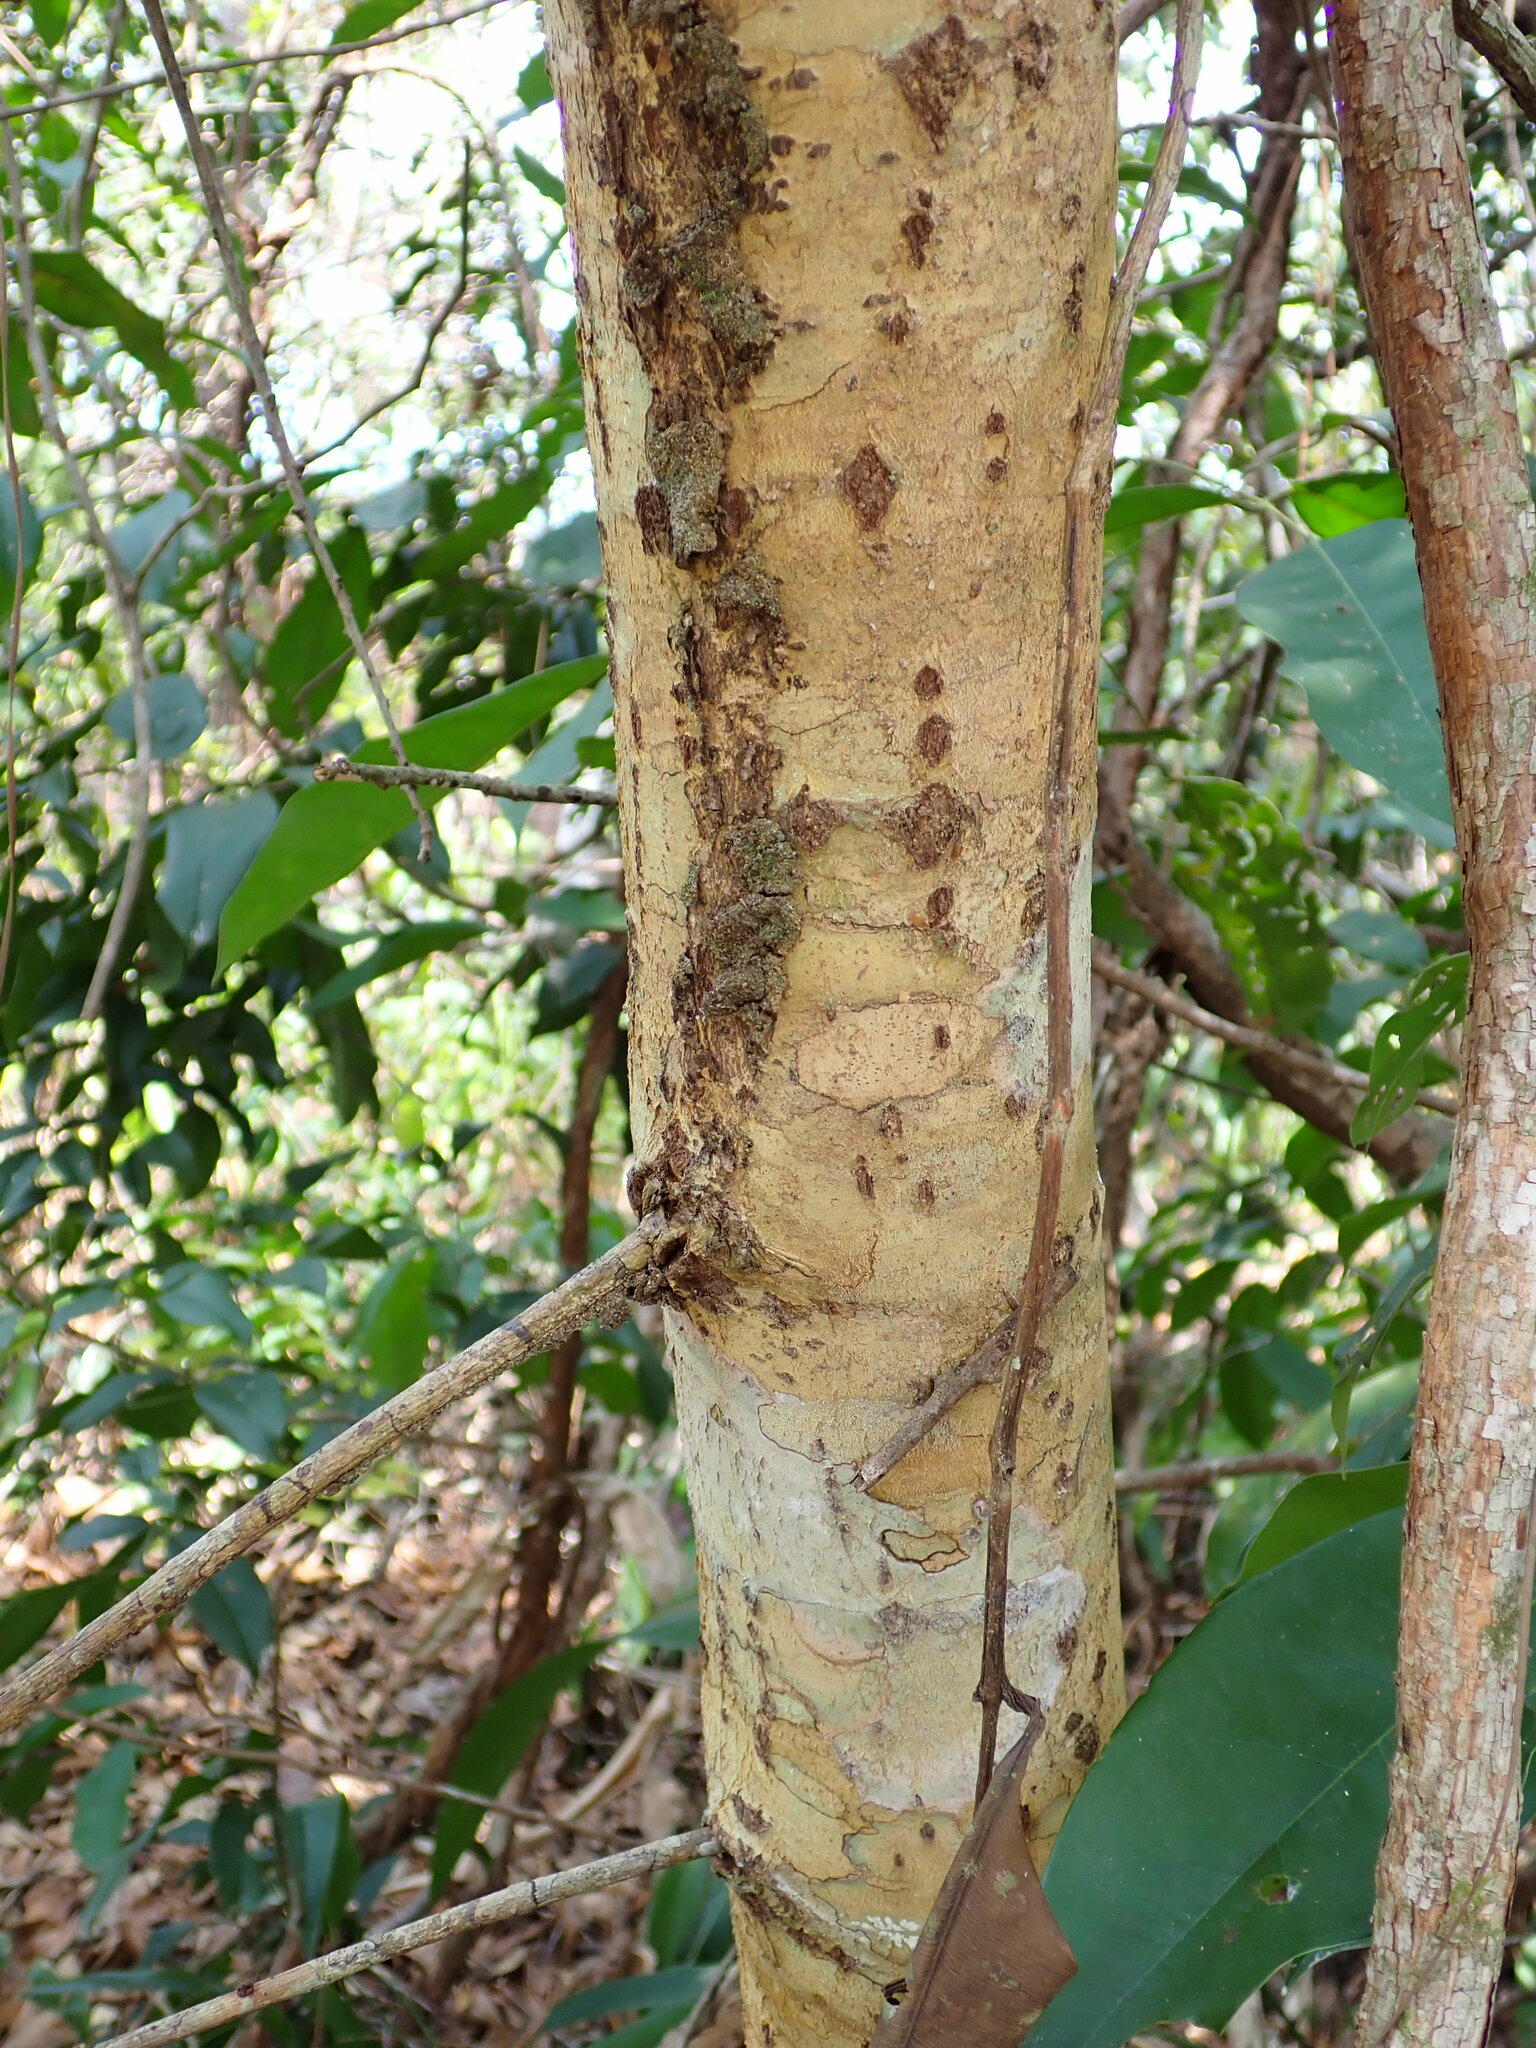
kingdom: Plantae
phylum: Tracheophyta
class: Magnoliopsida
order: Malpighiales
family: Calophyllaceae
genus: Calophyllum
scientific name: Calophyllum brasiliense
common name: Santa maria
